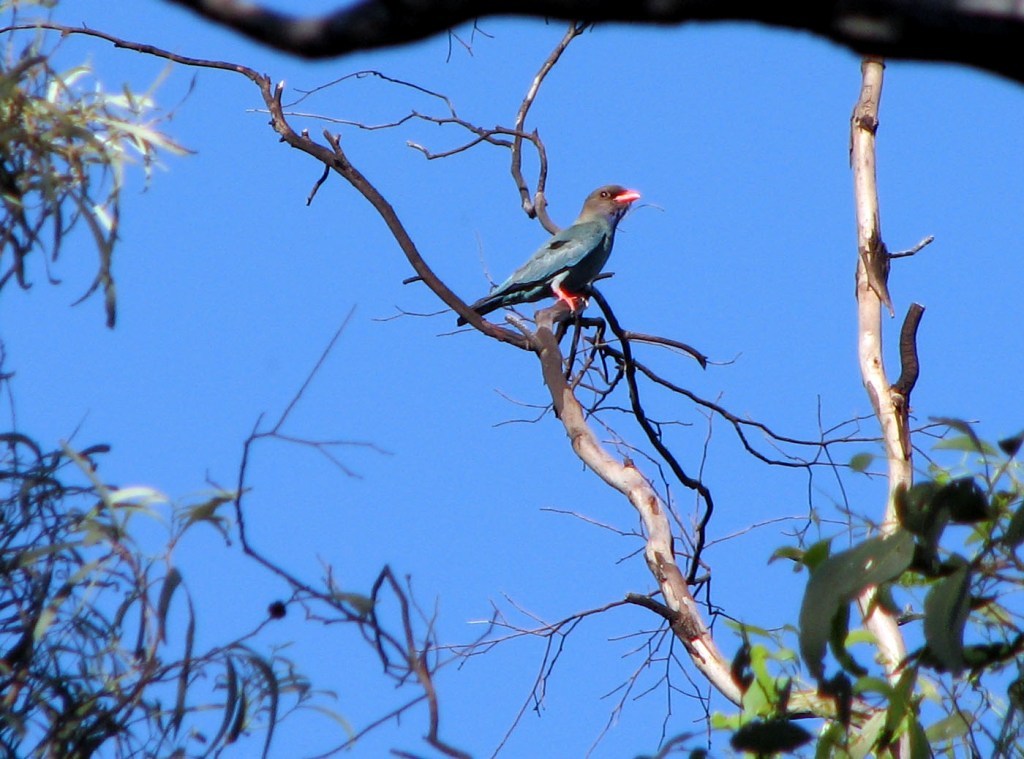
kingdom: Animalia
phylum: Chordata
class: Aves
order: Coraciiformes
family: Coraciidae
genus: Eurystomus
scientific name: Eurystomus orientalis
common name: Oriental dollarbird
